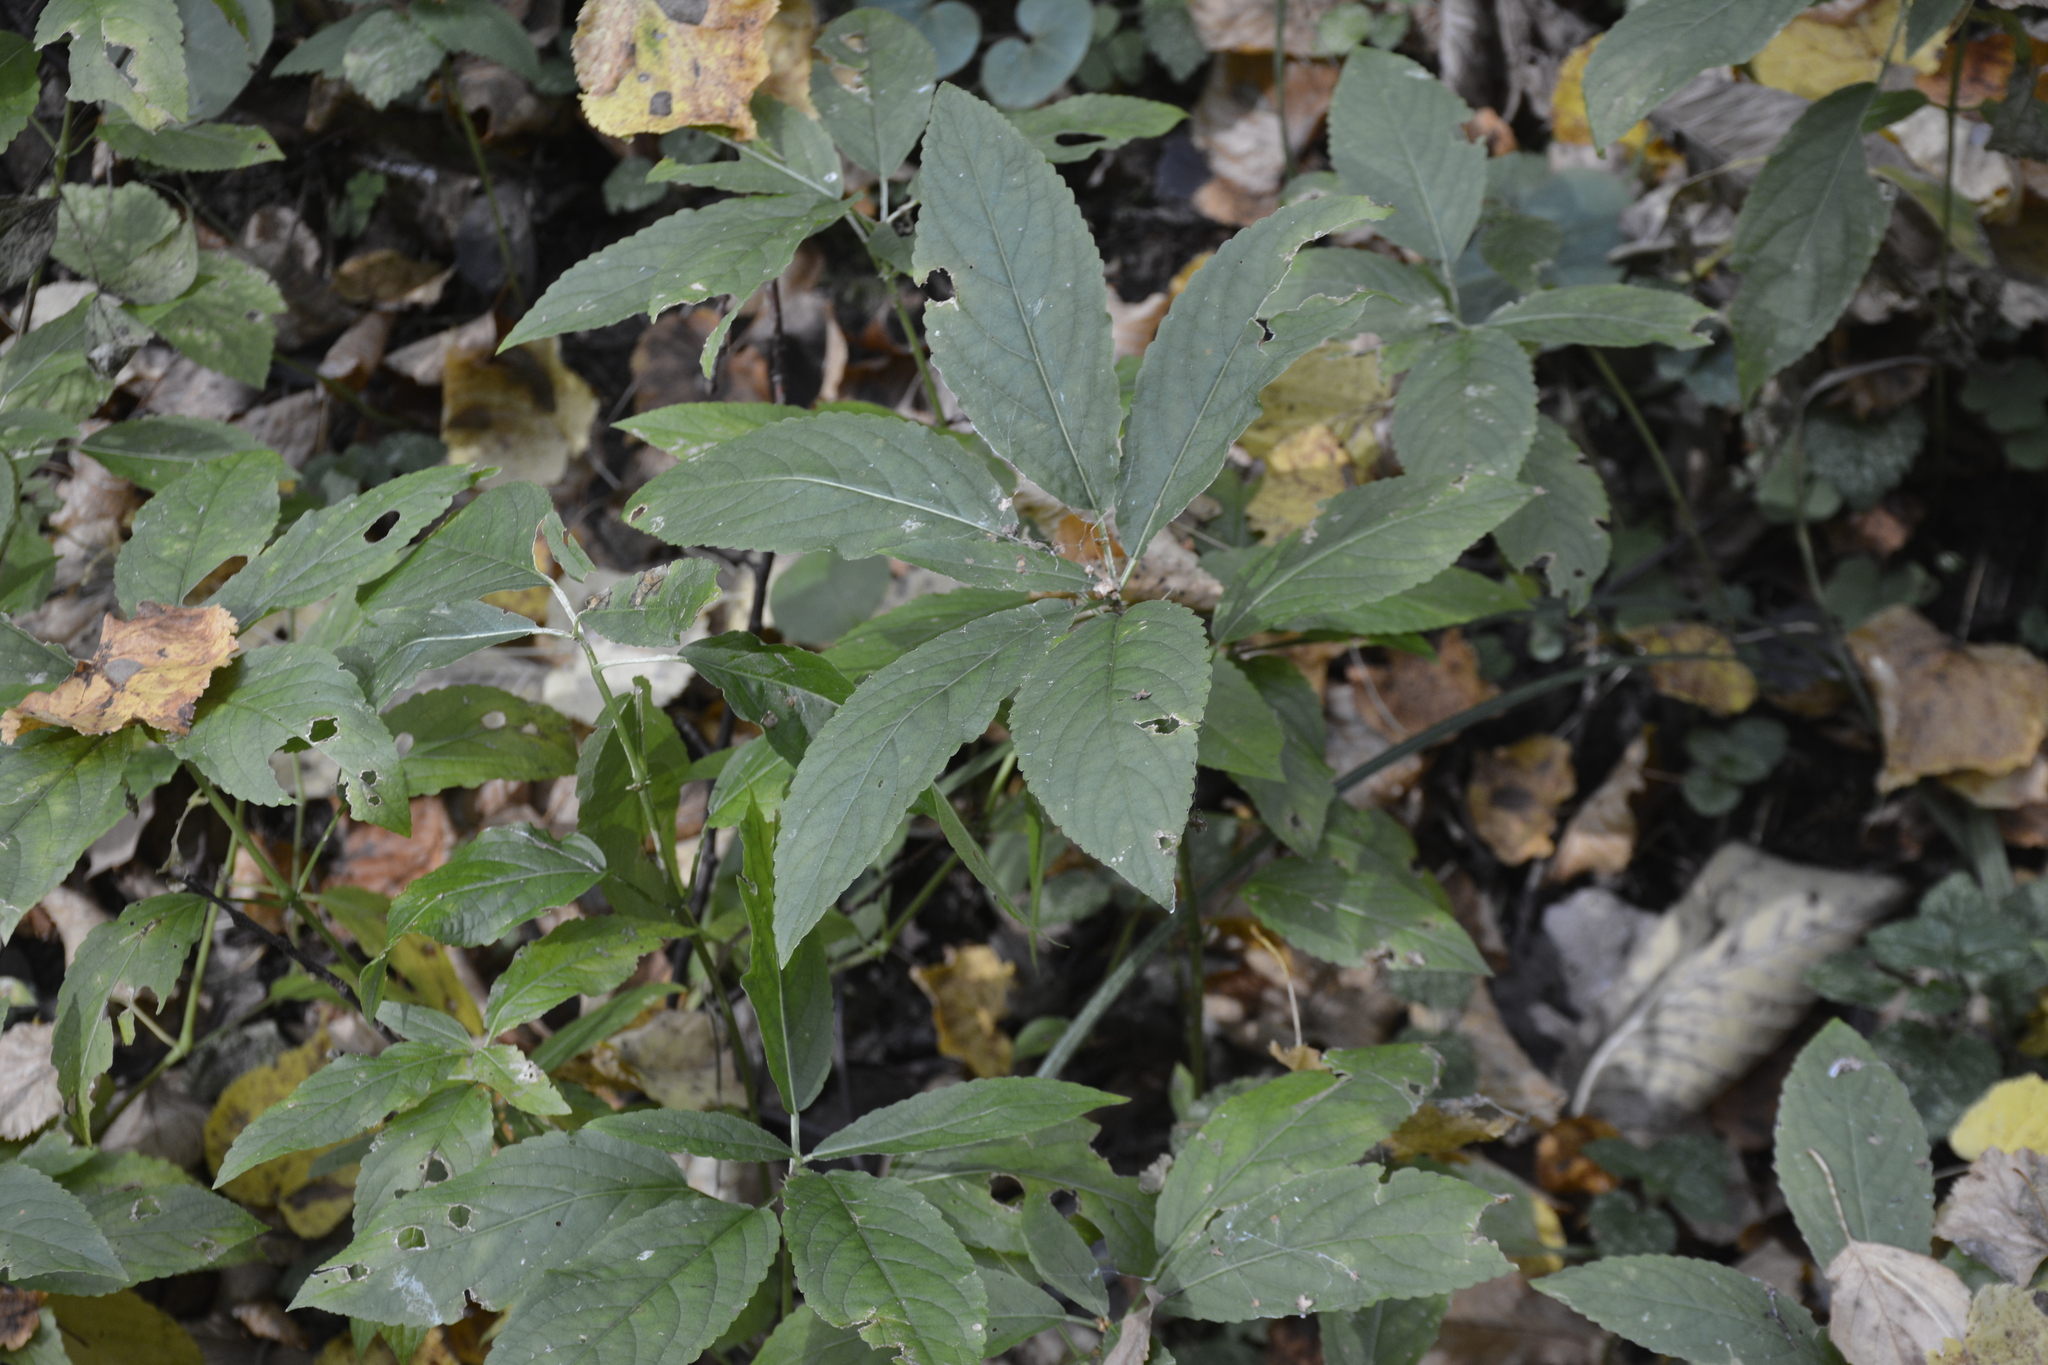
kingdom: Plantae
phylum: Tracheophyta
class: Magnoliopsida
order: Malpighiales
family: Euphorbiaceae
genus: Mercurialis
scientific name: Mercurialis perennis
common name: Dog mercury
